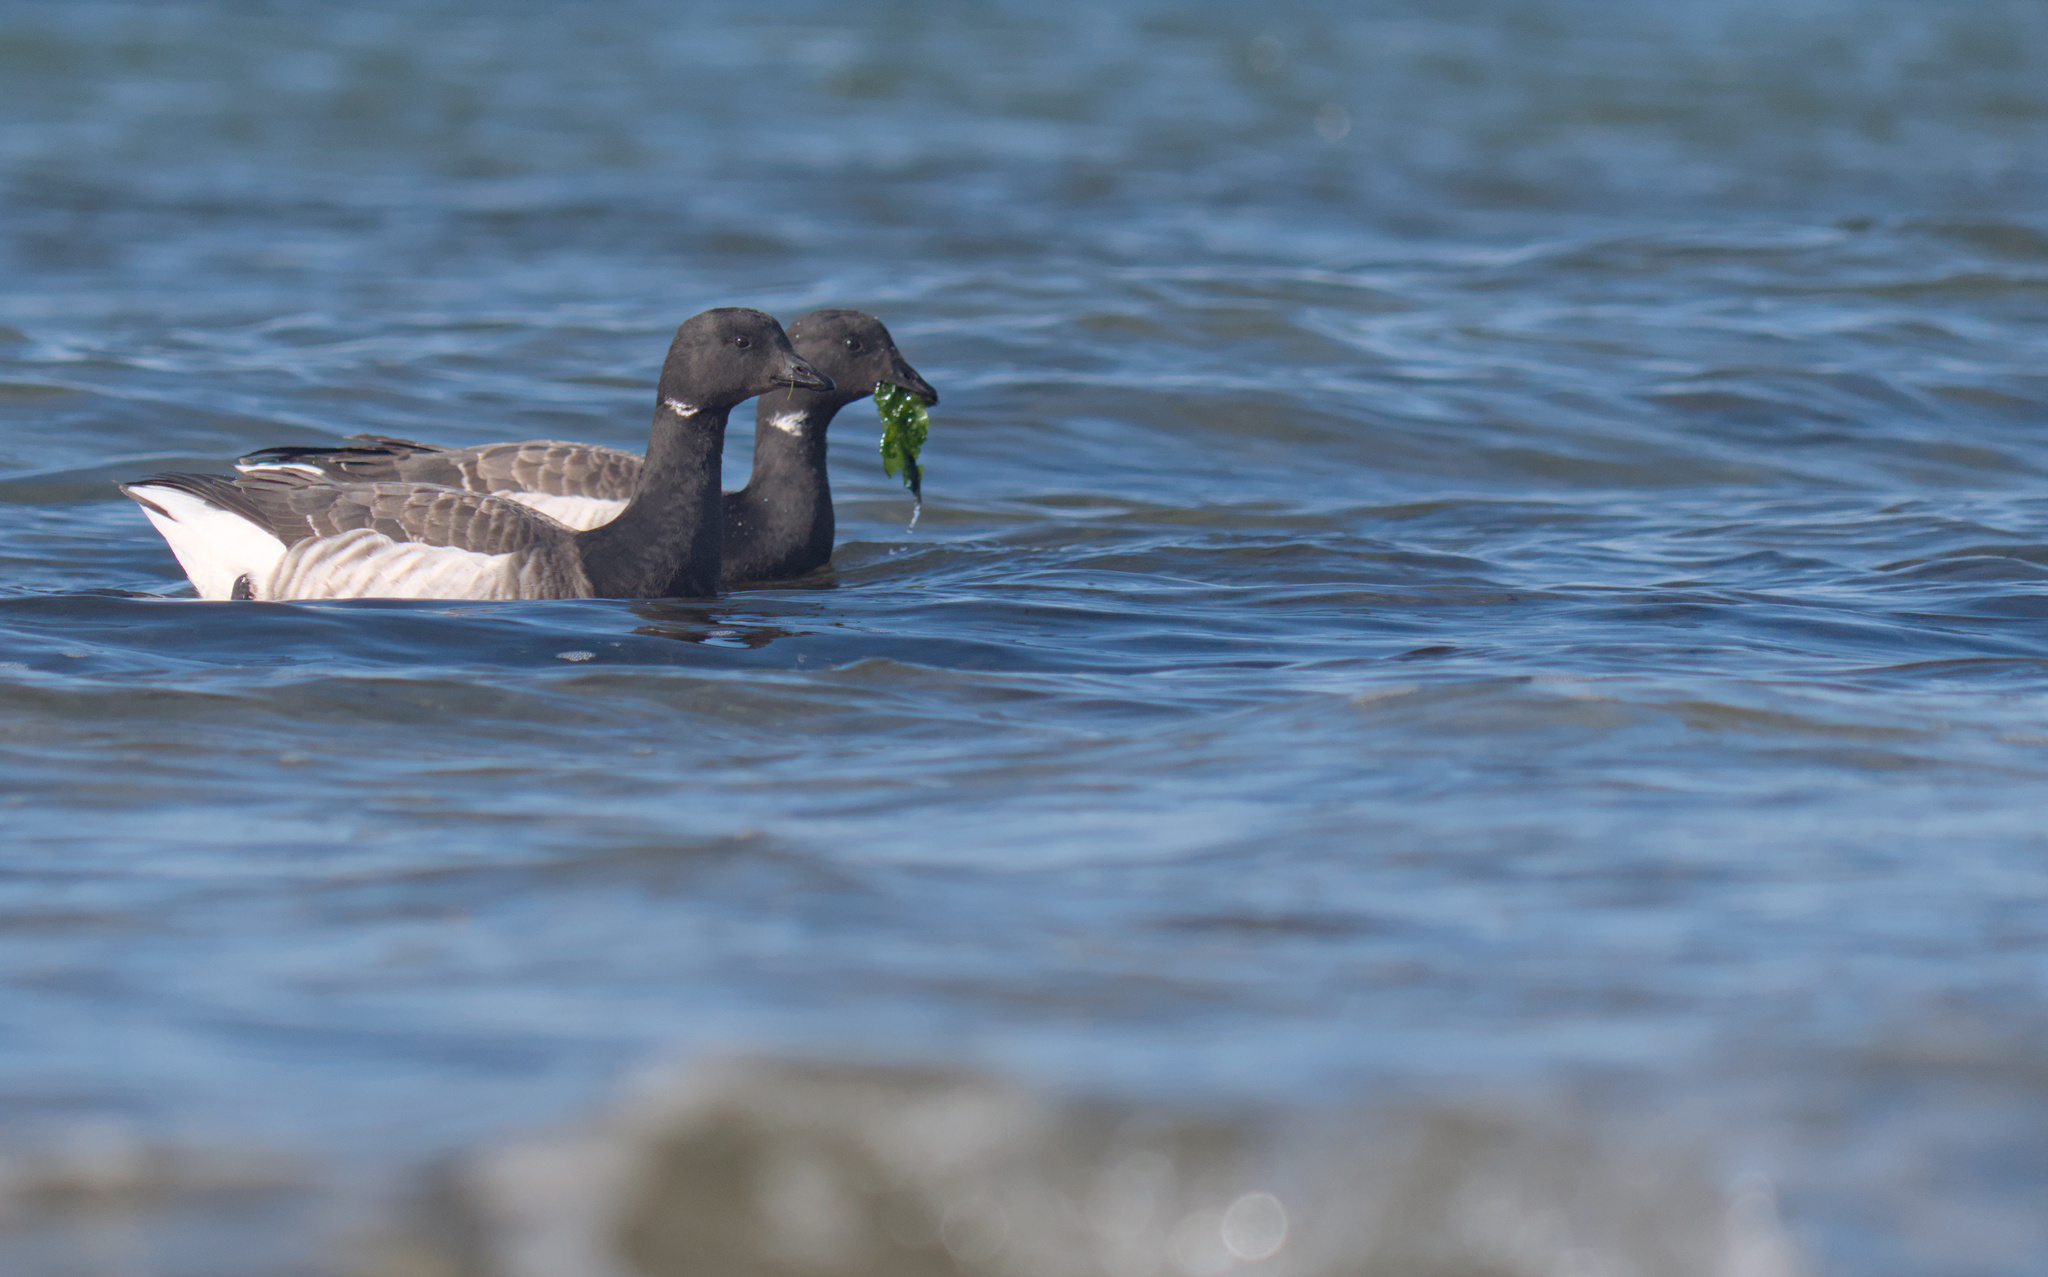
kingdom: Animalia
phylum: Chordata
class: Aves
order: Anseriformes
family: Anatidae
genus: Branta
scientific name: Branta bernicla
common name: Brant goose
